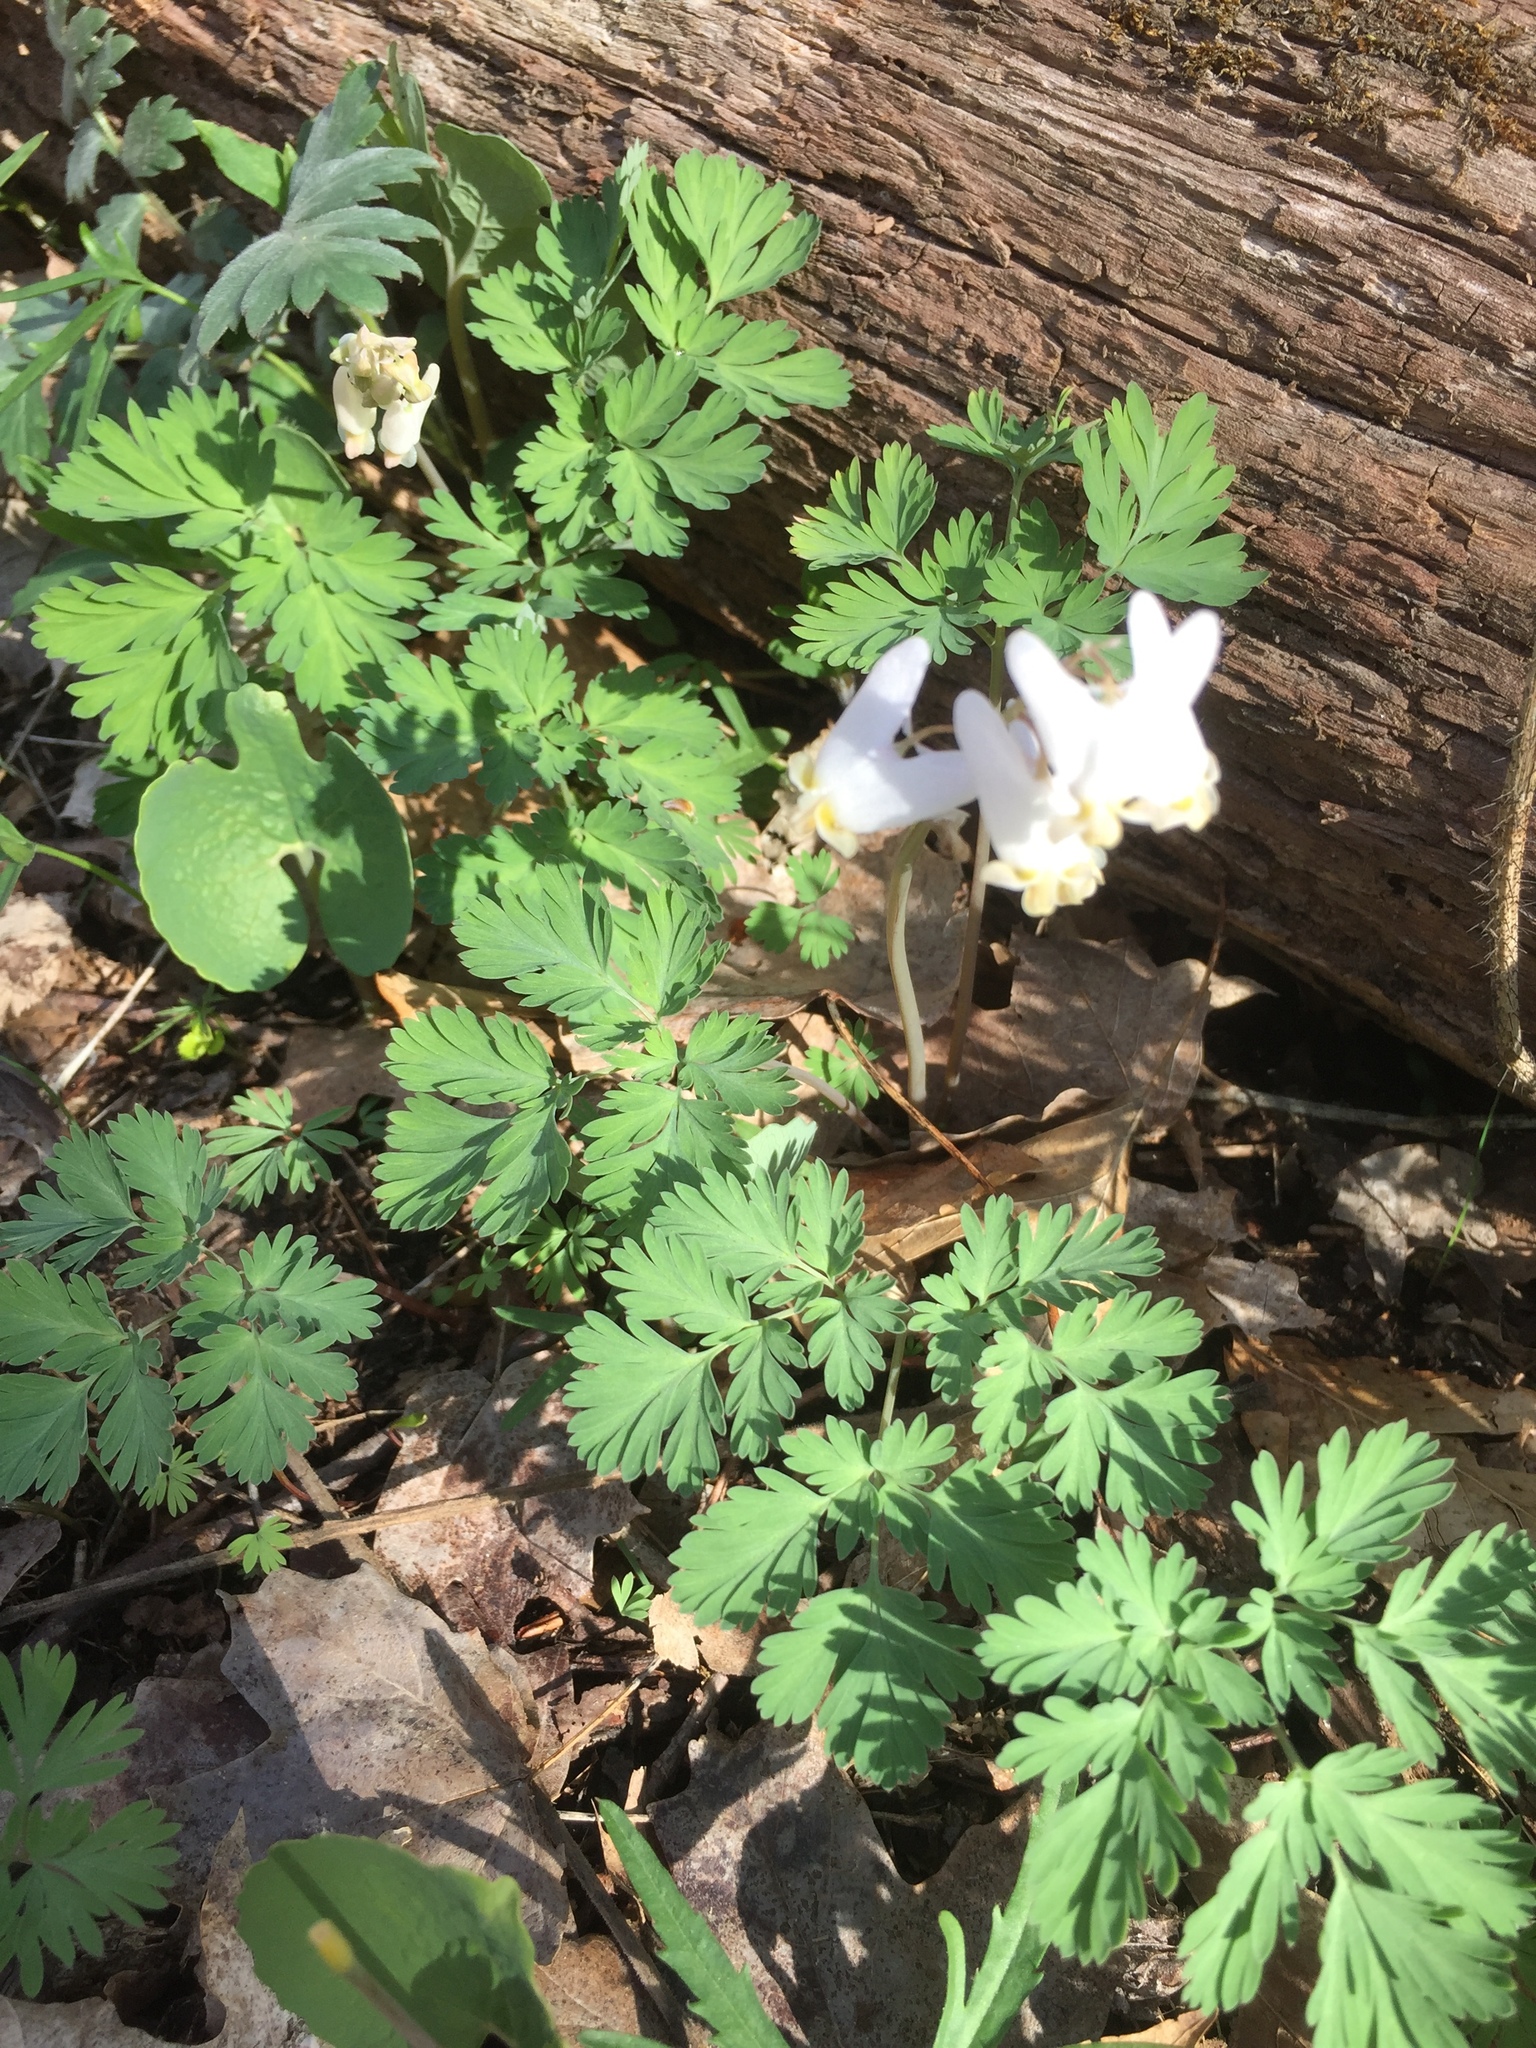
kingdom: Plantae
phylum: Tracheophyta
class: Magnoliopsida
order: Ranunculales
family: Papaveraceae
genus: Dicentra
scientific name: Dicentra cucullaria
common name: Dutchman's breeches
